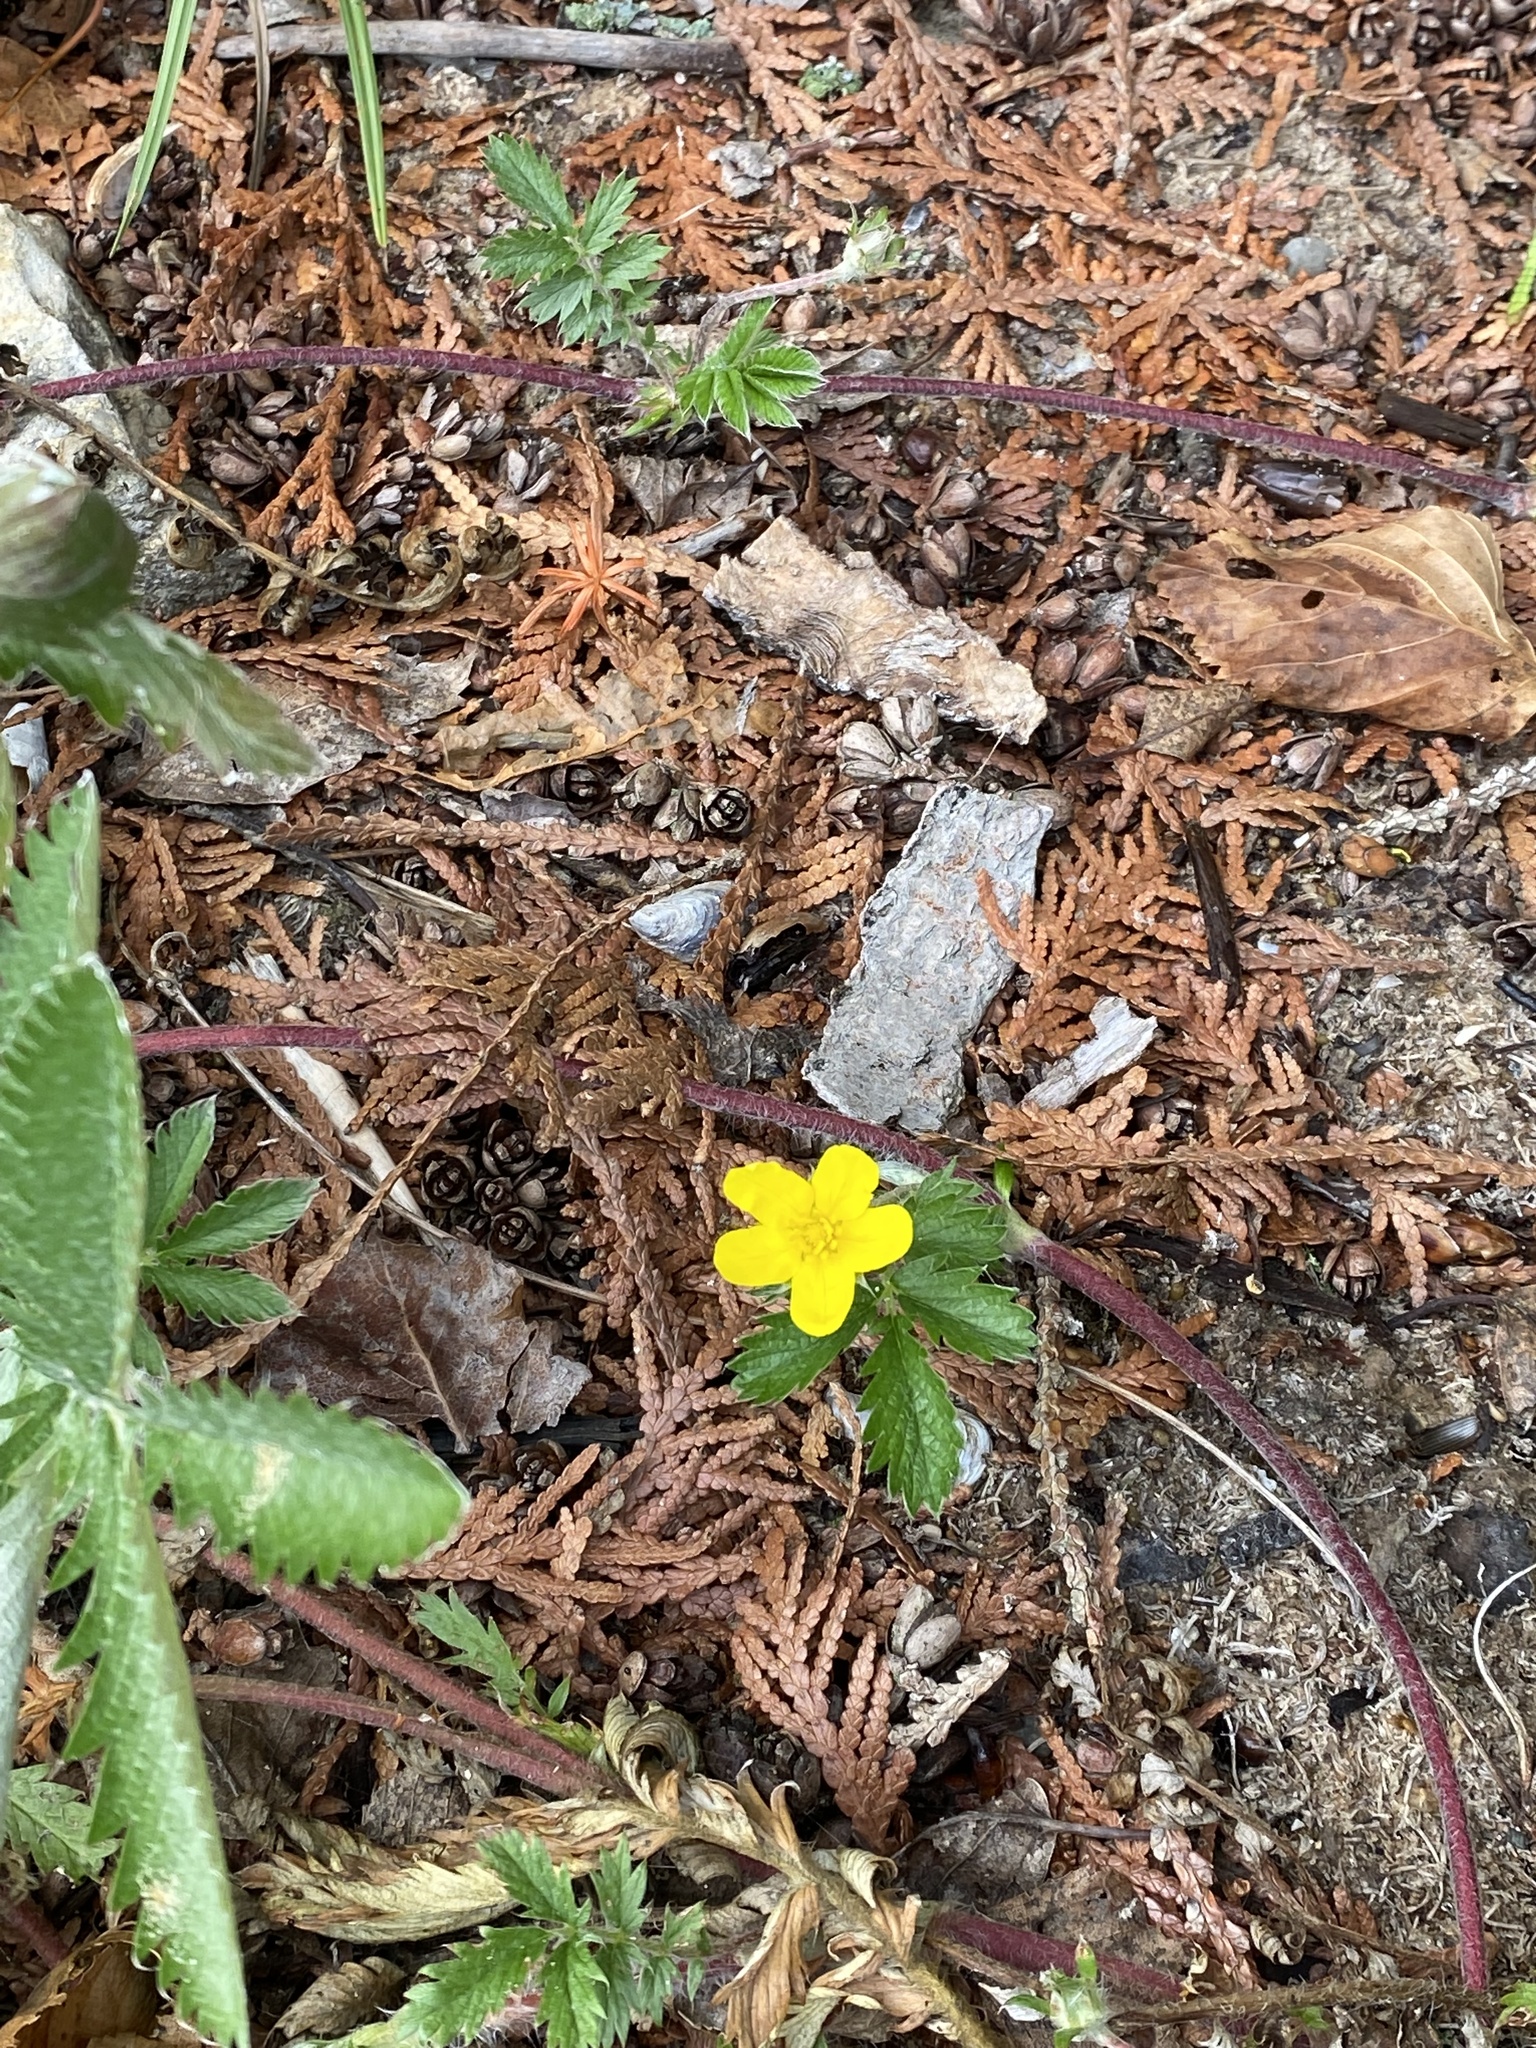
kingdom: Plantae
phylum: Tracheophyta
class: Magnoliopsida
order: Rosales
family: Rosaceae
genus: Argentina
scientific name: Argentina anserina
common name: Common silverweed
